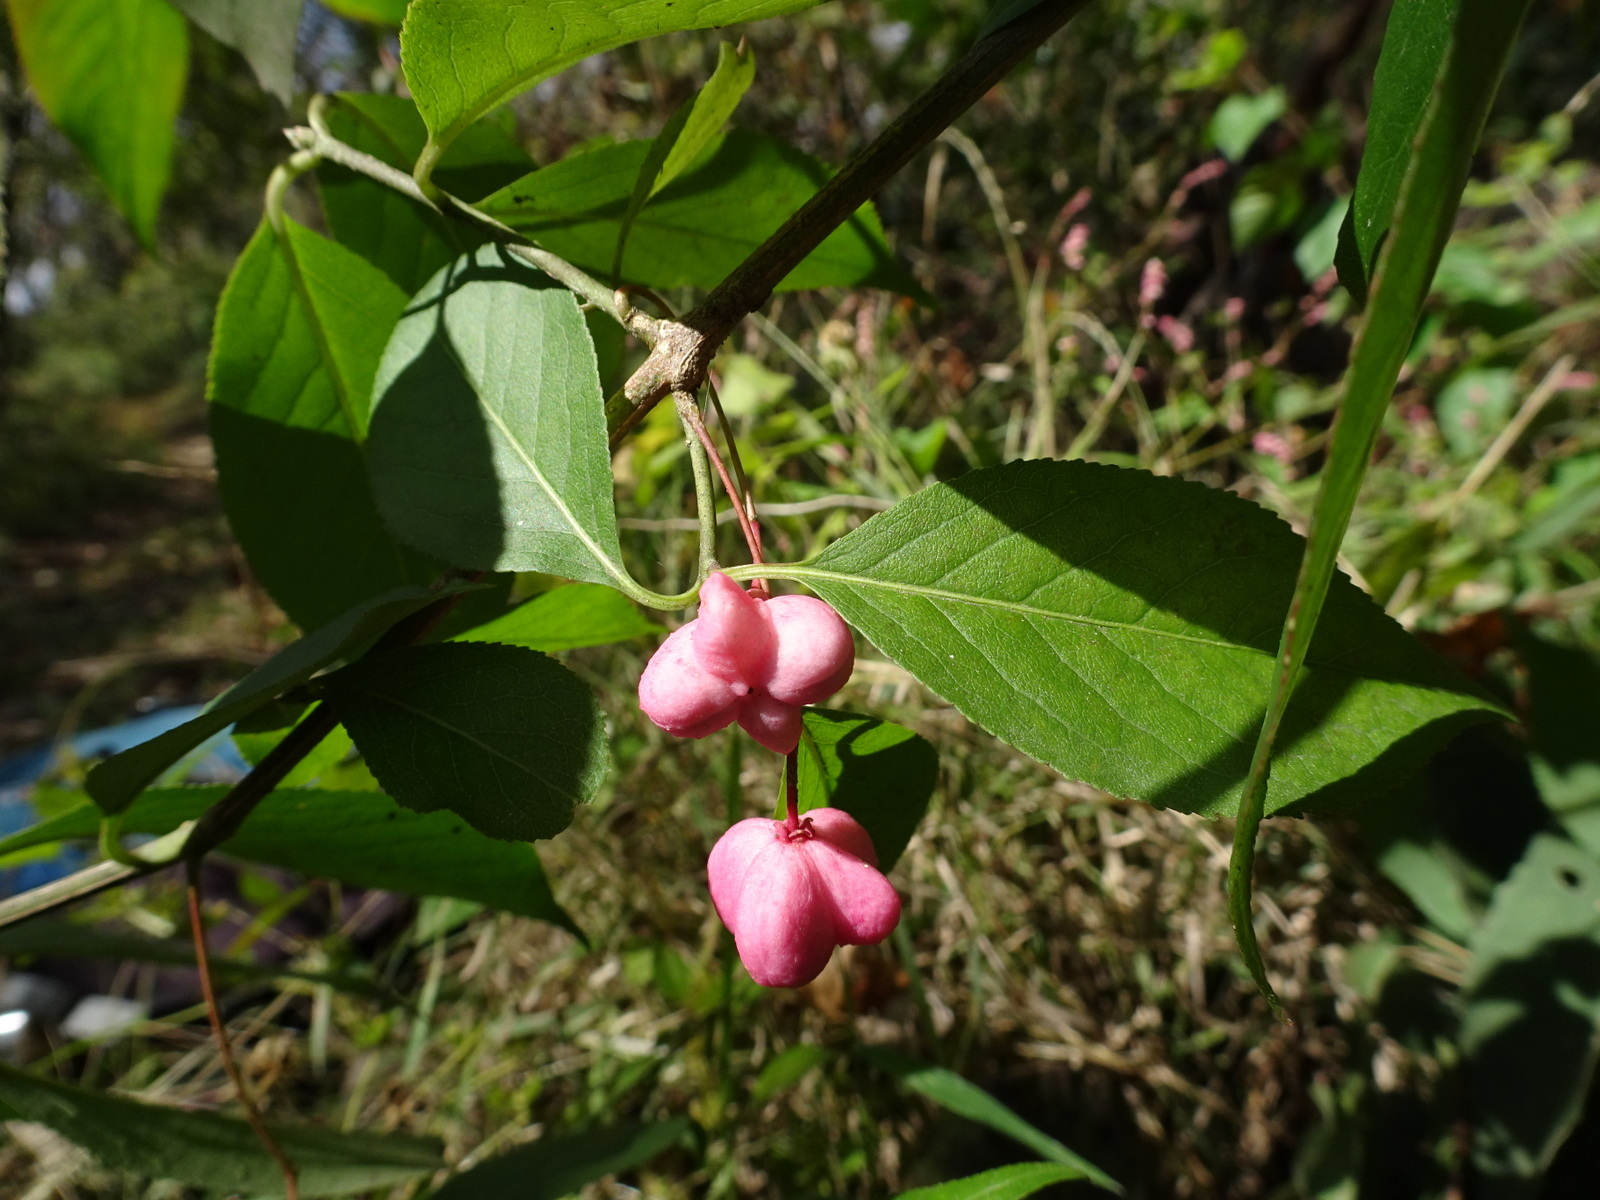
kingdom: Plantae
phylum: Tracheophyta
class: Magnoliopsida
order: Celastrales
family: Celastraceae
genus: Euonymus
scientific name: Euonymus atropurpureus
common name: Eastern wahoo
